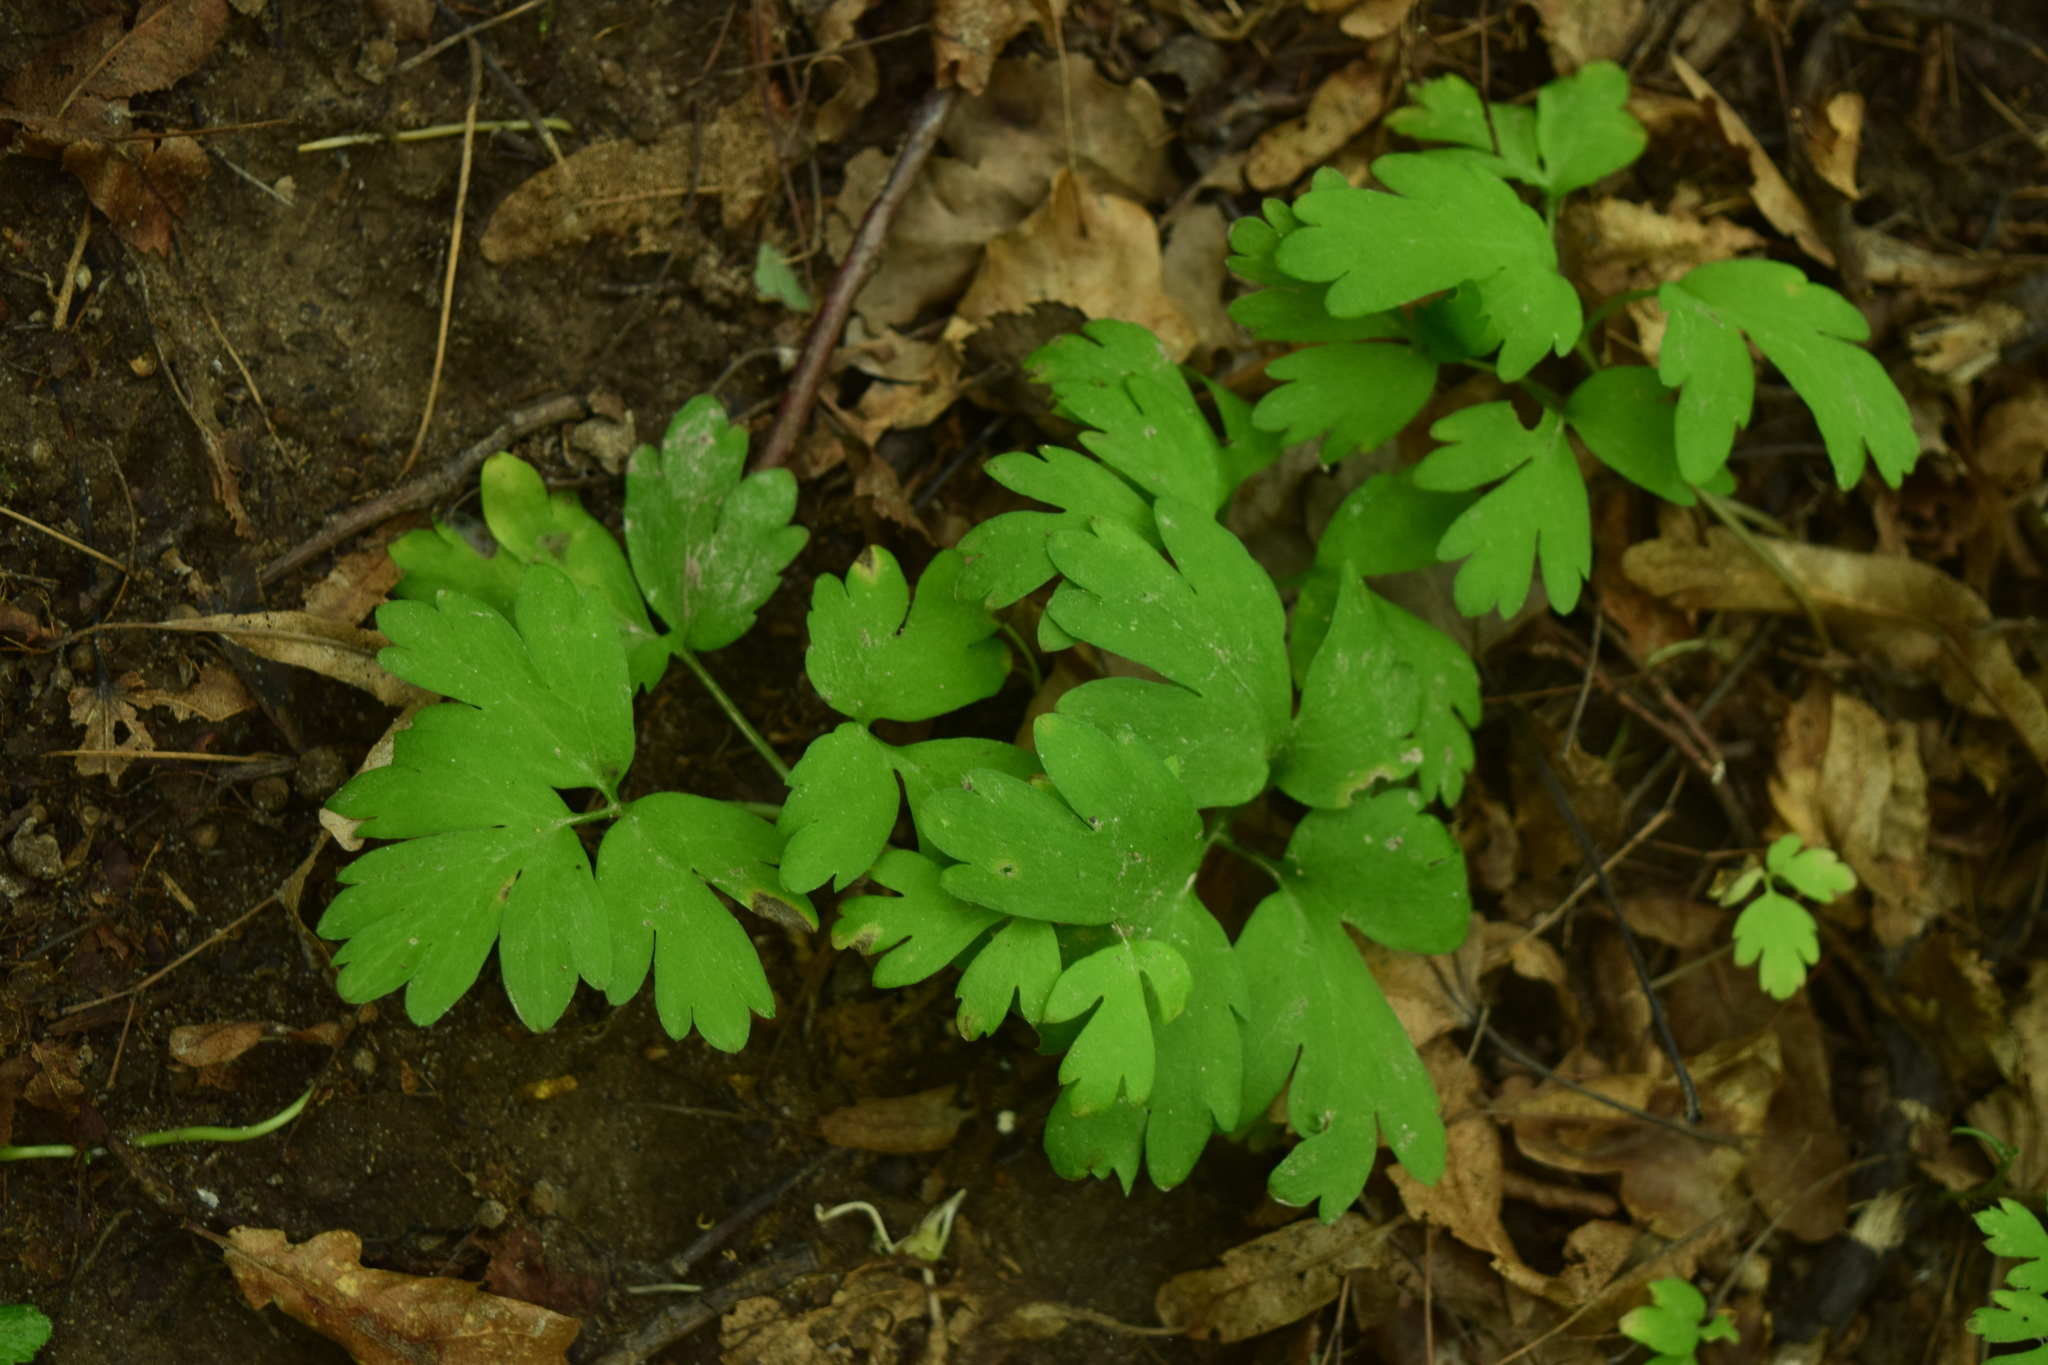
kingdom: Plantae
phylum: Tracheophyta
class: Magnoliopsida
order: Dipsacales
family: Viburnaceae
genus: Adoxa
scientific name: Adoxa moschatellina
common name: Moschatel
